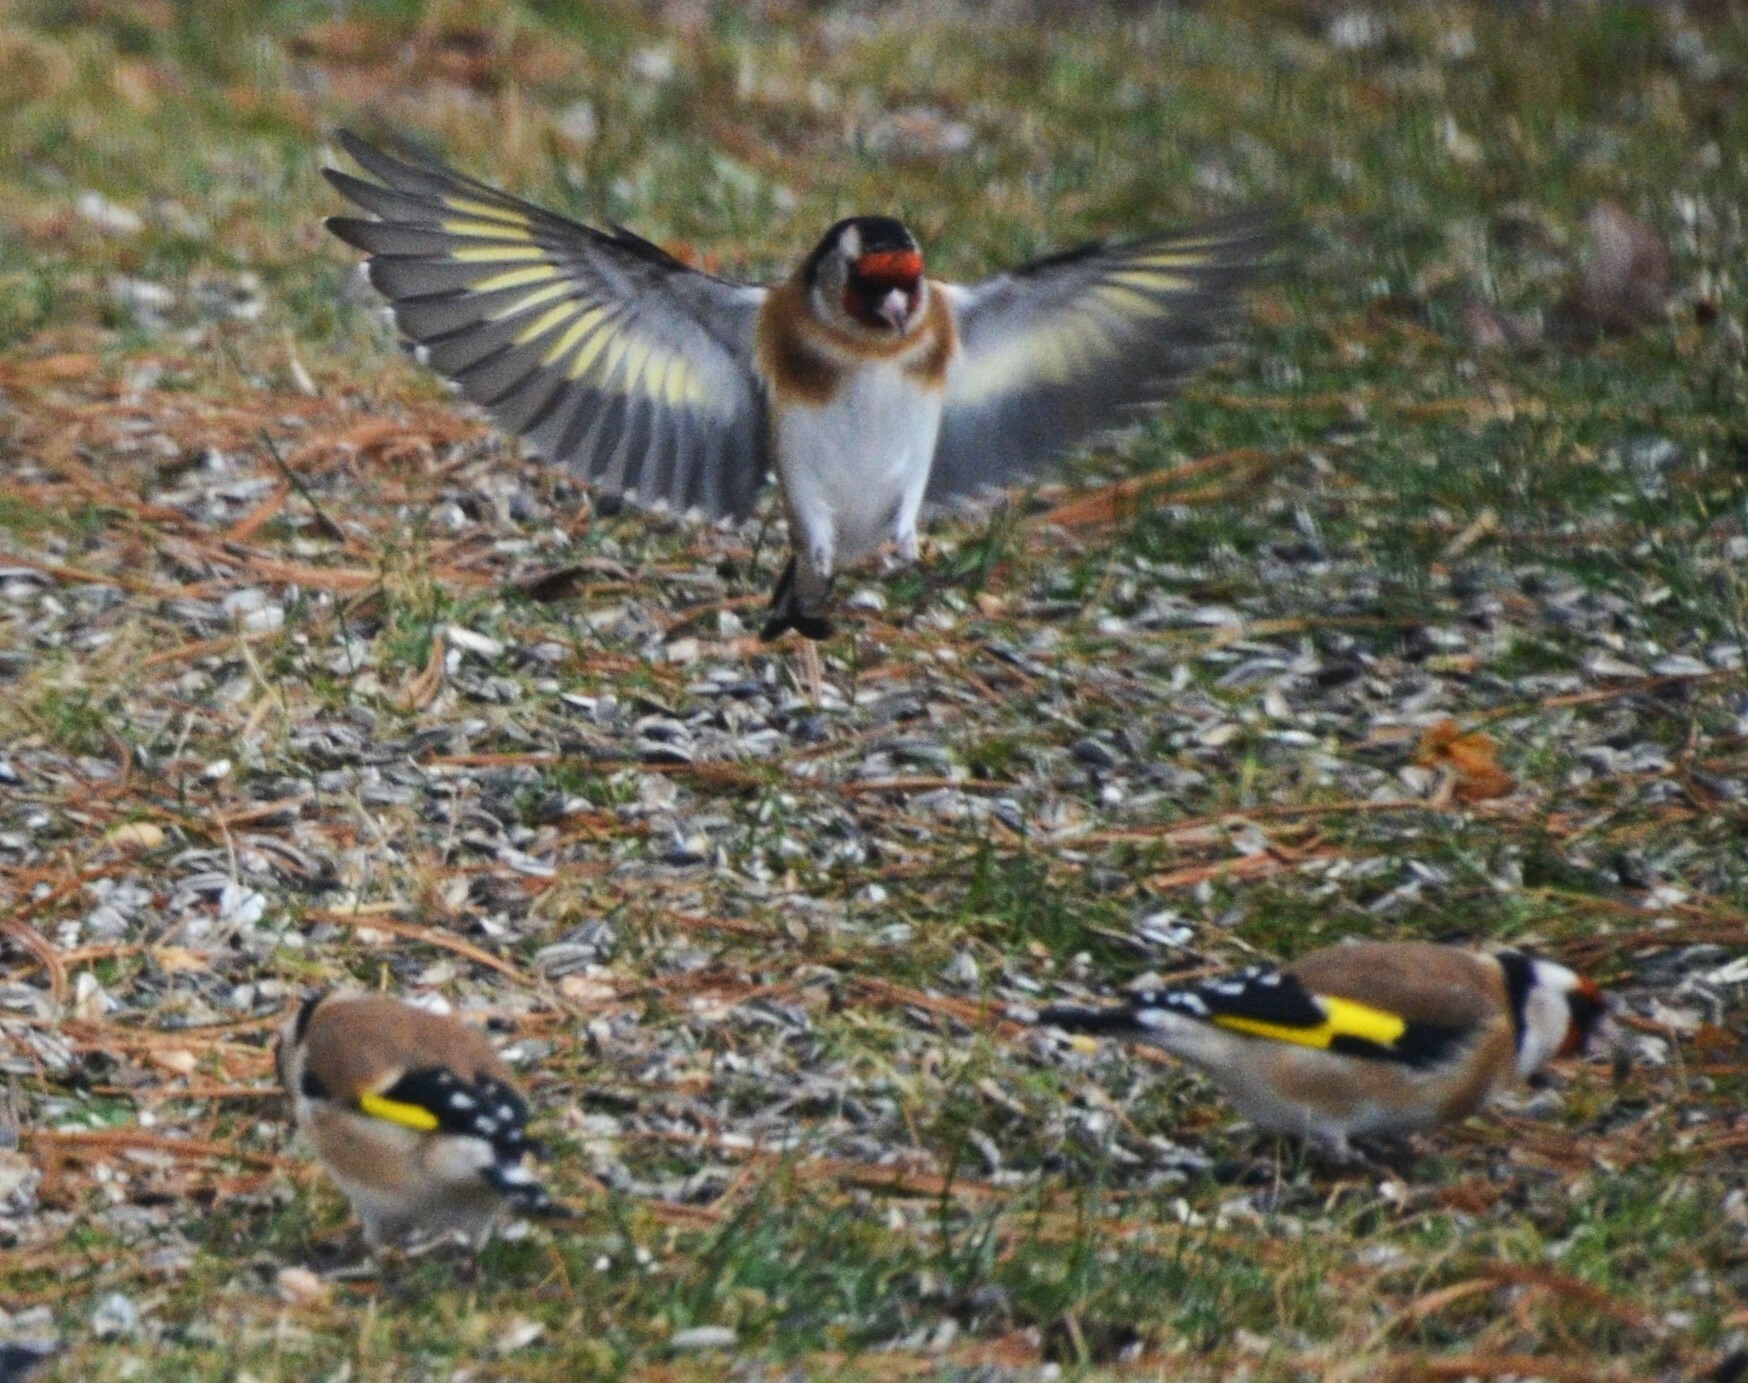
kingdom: Animalia
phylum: Chordata
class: Aves
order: Passeriformes
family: Fringillidae
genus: Carduelis
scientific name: Carduelis carduelis
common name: European goldfinch
